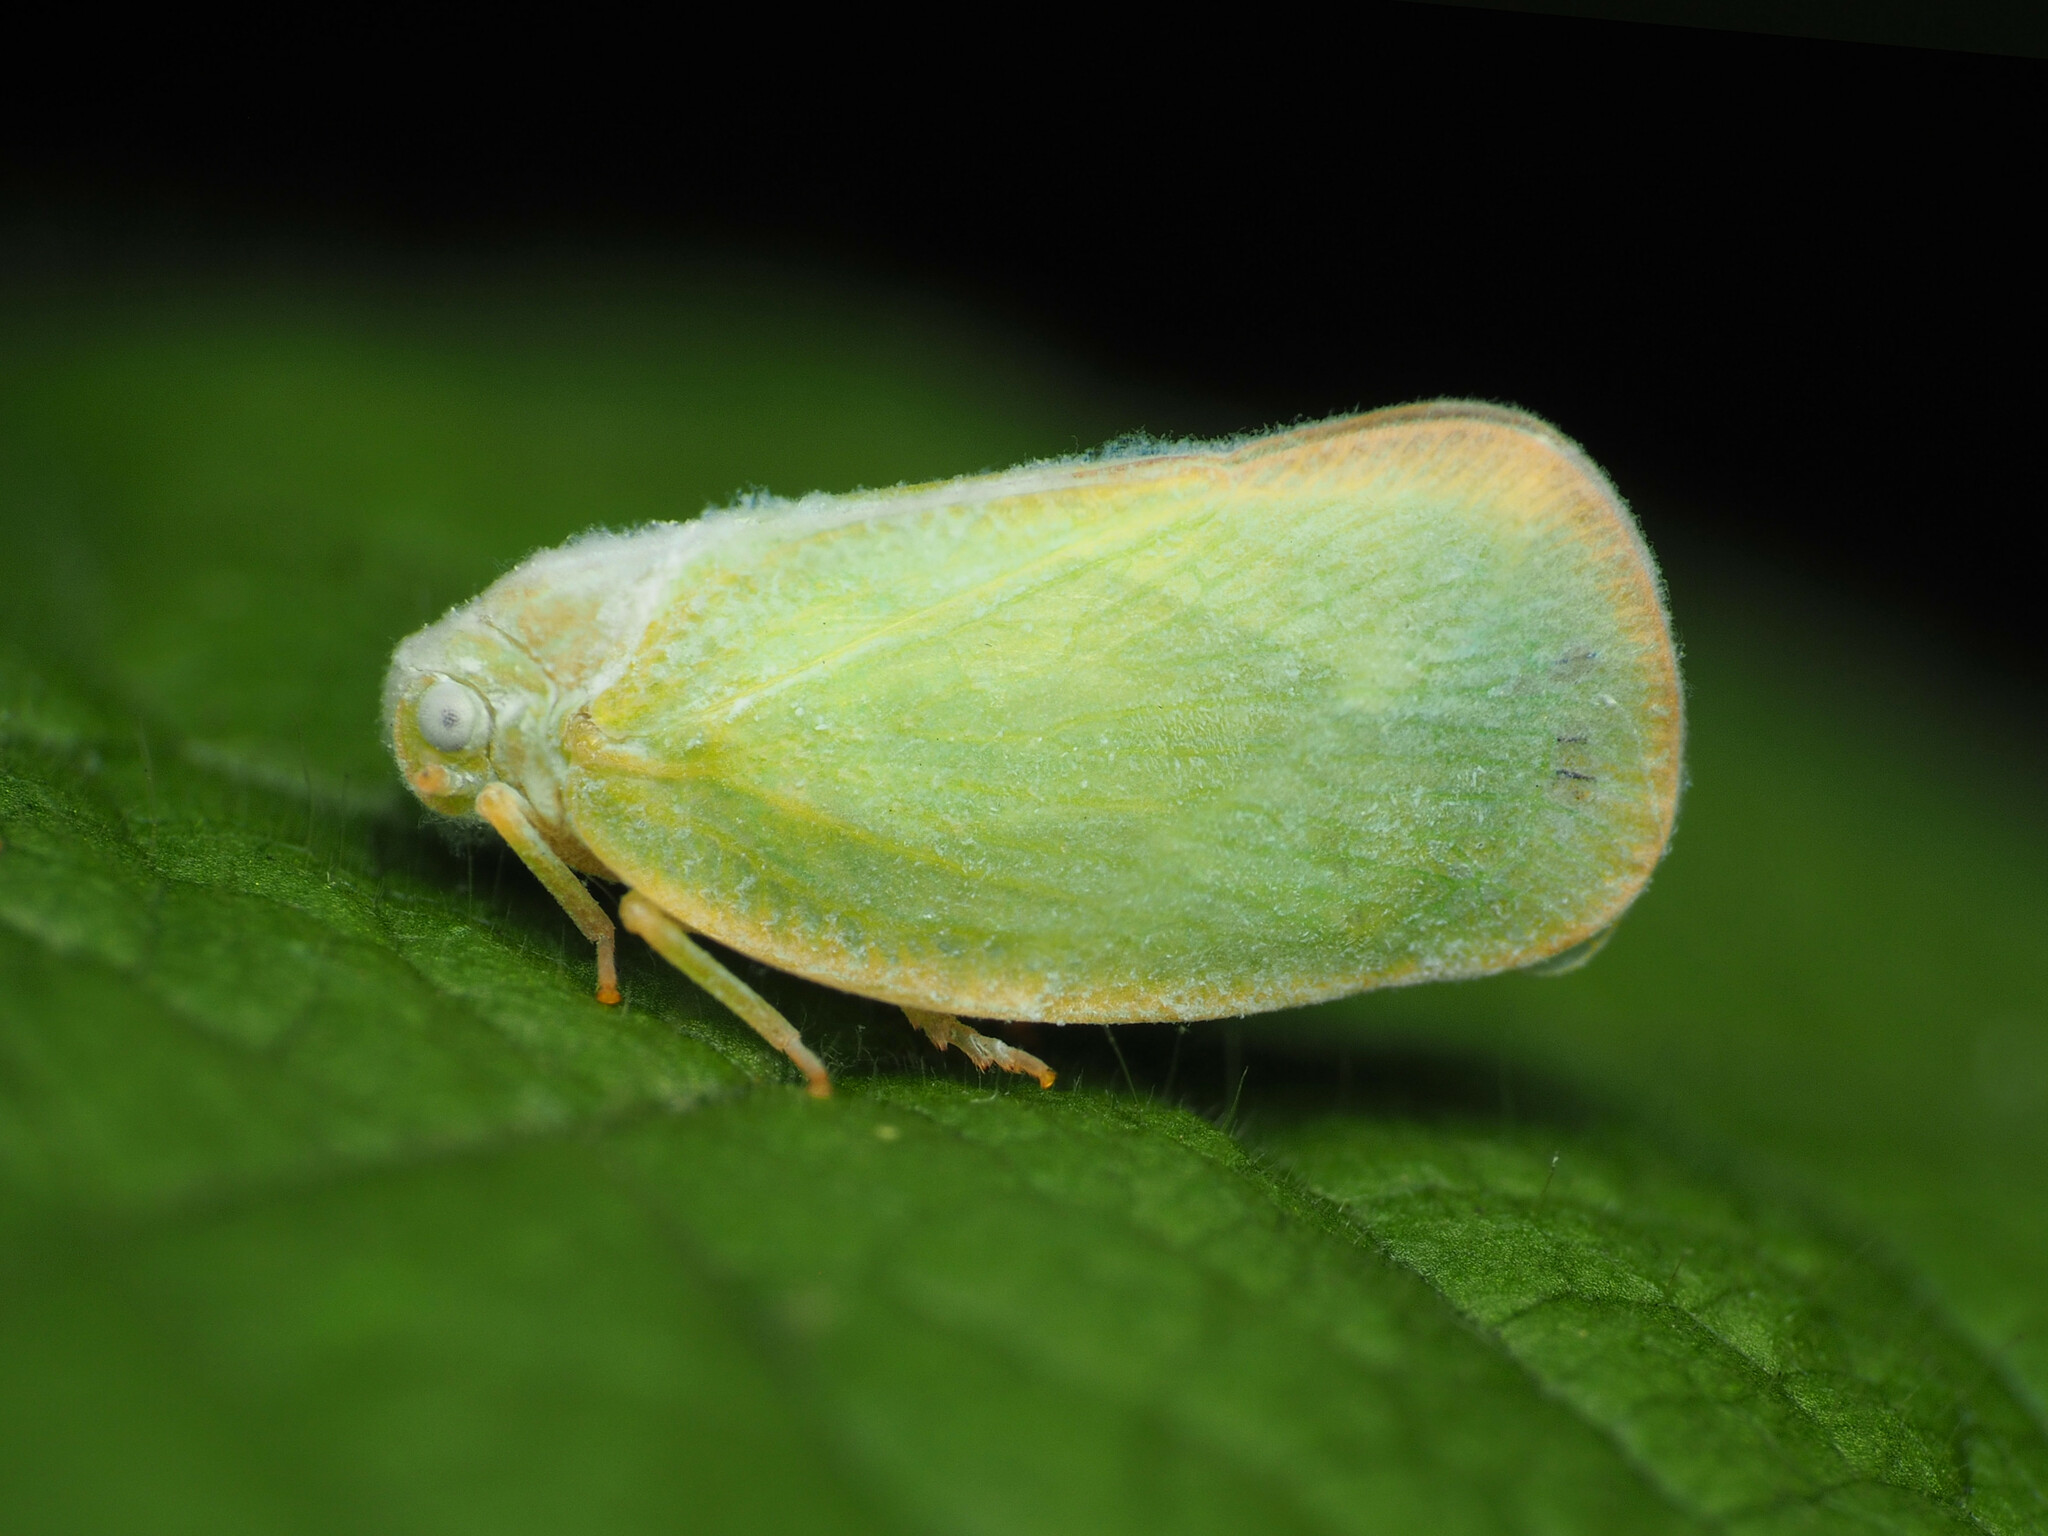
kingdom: Animalia
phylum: Arthropoda
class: Insecta
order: Hemiptera
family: Flatidae
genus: Ormenoides
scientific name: Ormenoides venusta
